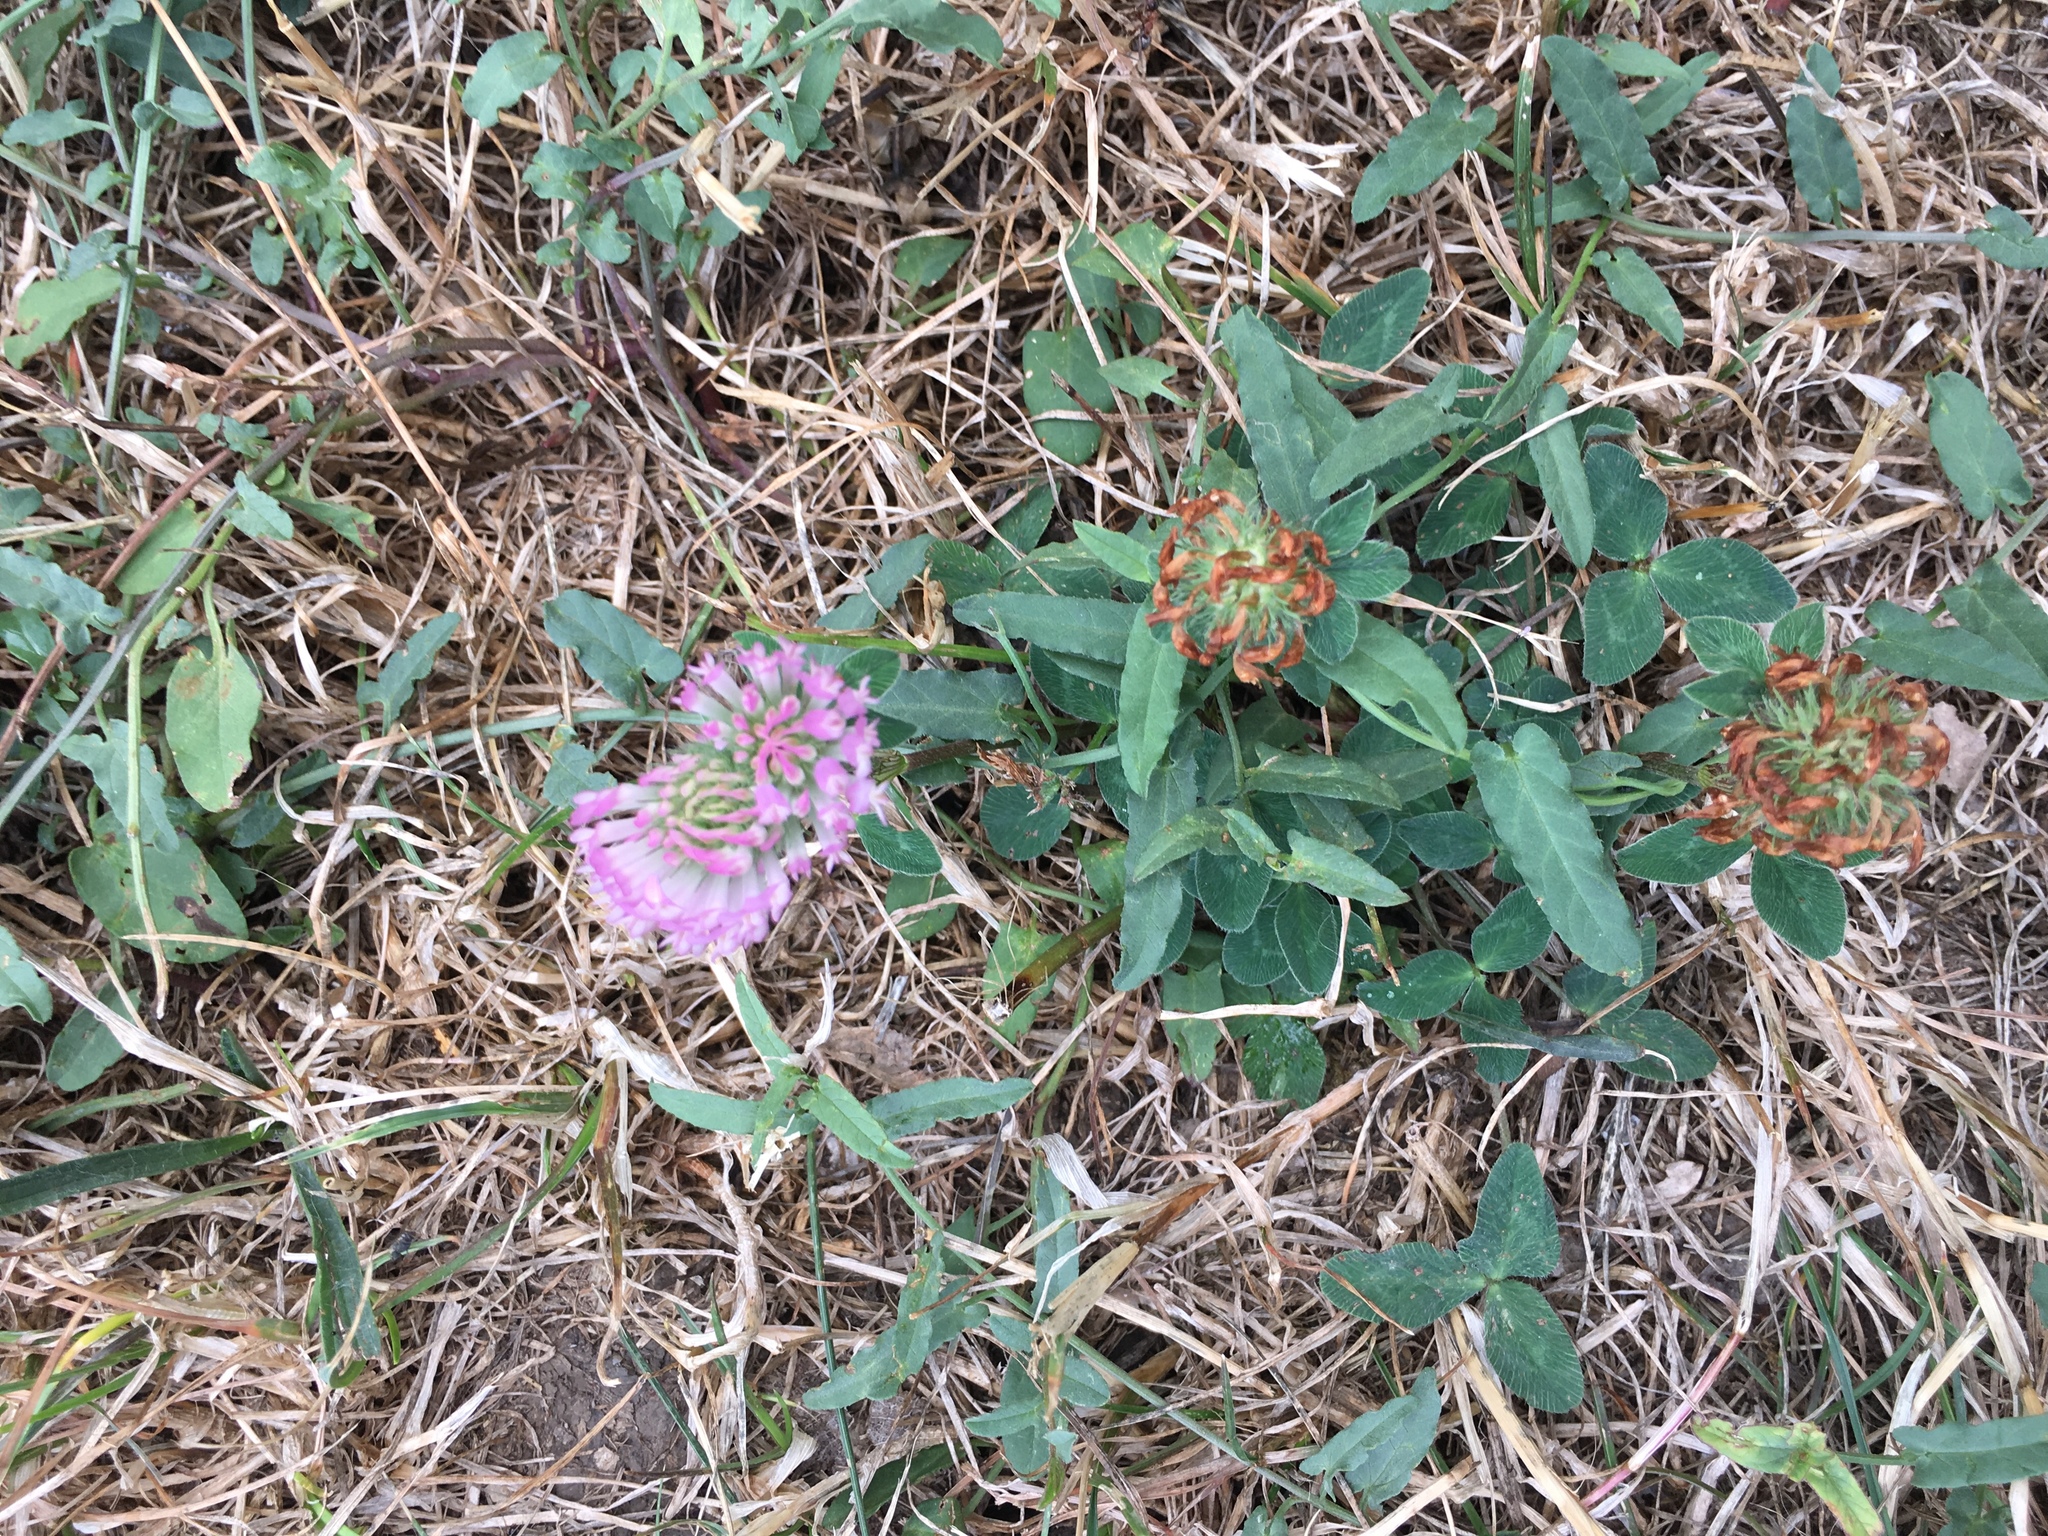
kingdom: Plantae
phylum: Tracheophyta
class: Magnoliopsida
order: Fabales
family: Fabaceae
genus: Trifolium
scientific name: Trifolium pratense
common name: Red clover
